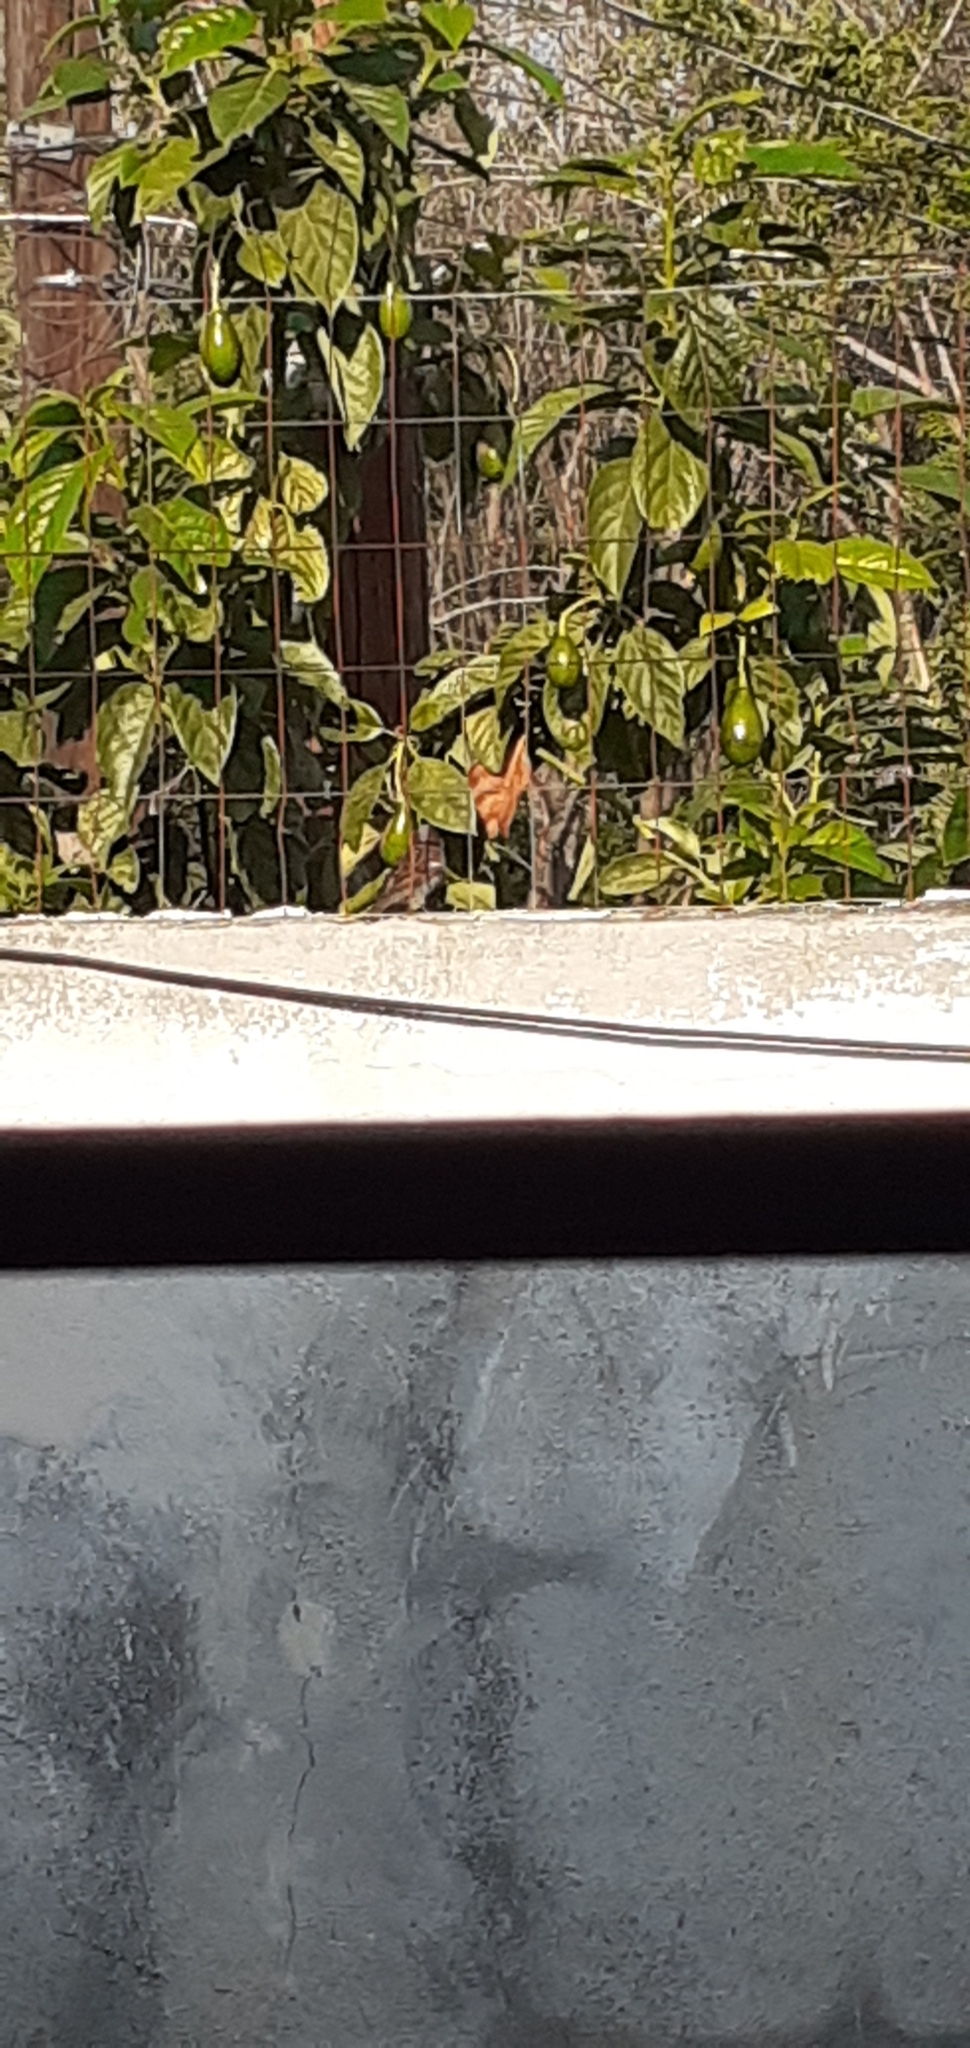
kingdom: Animalia
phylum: Chordata
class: Aves
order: Passeriformes
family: Passeridae
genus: Passer
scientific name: Passer domesticus
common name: House sparrow
